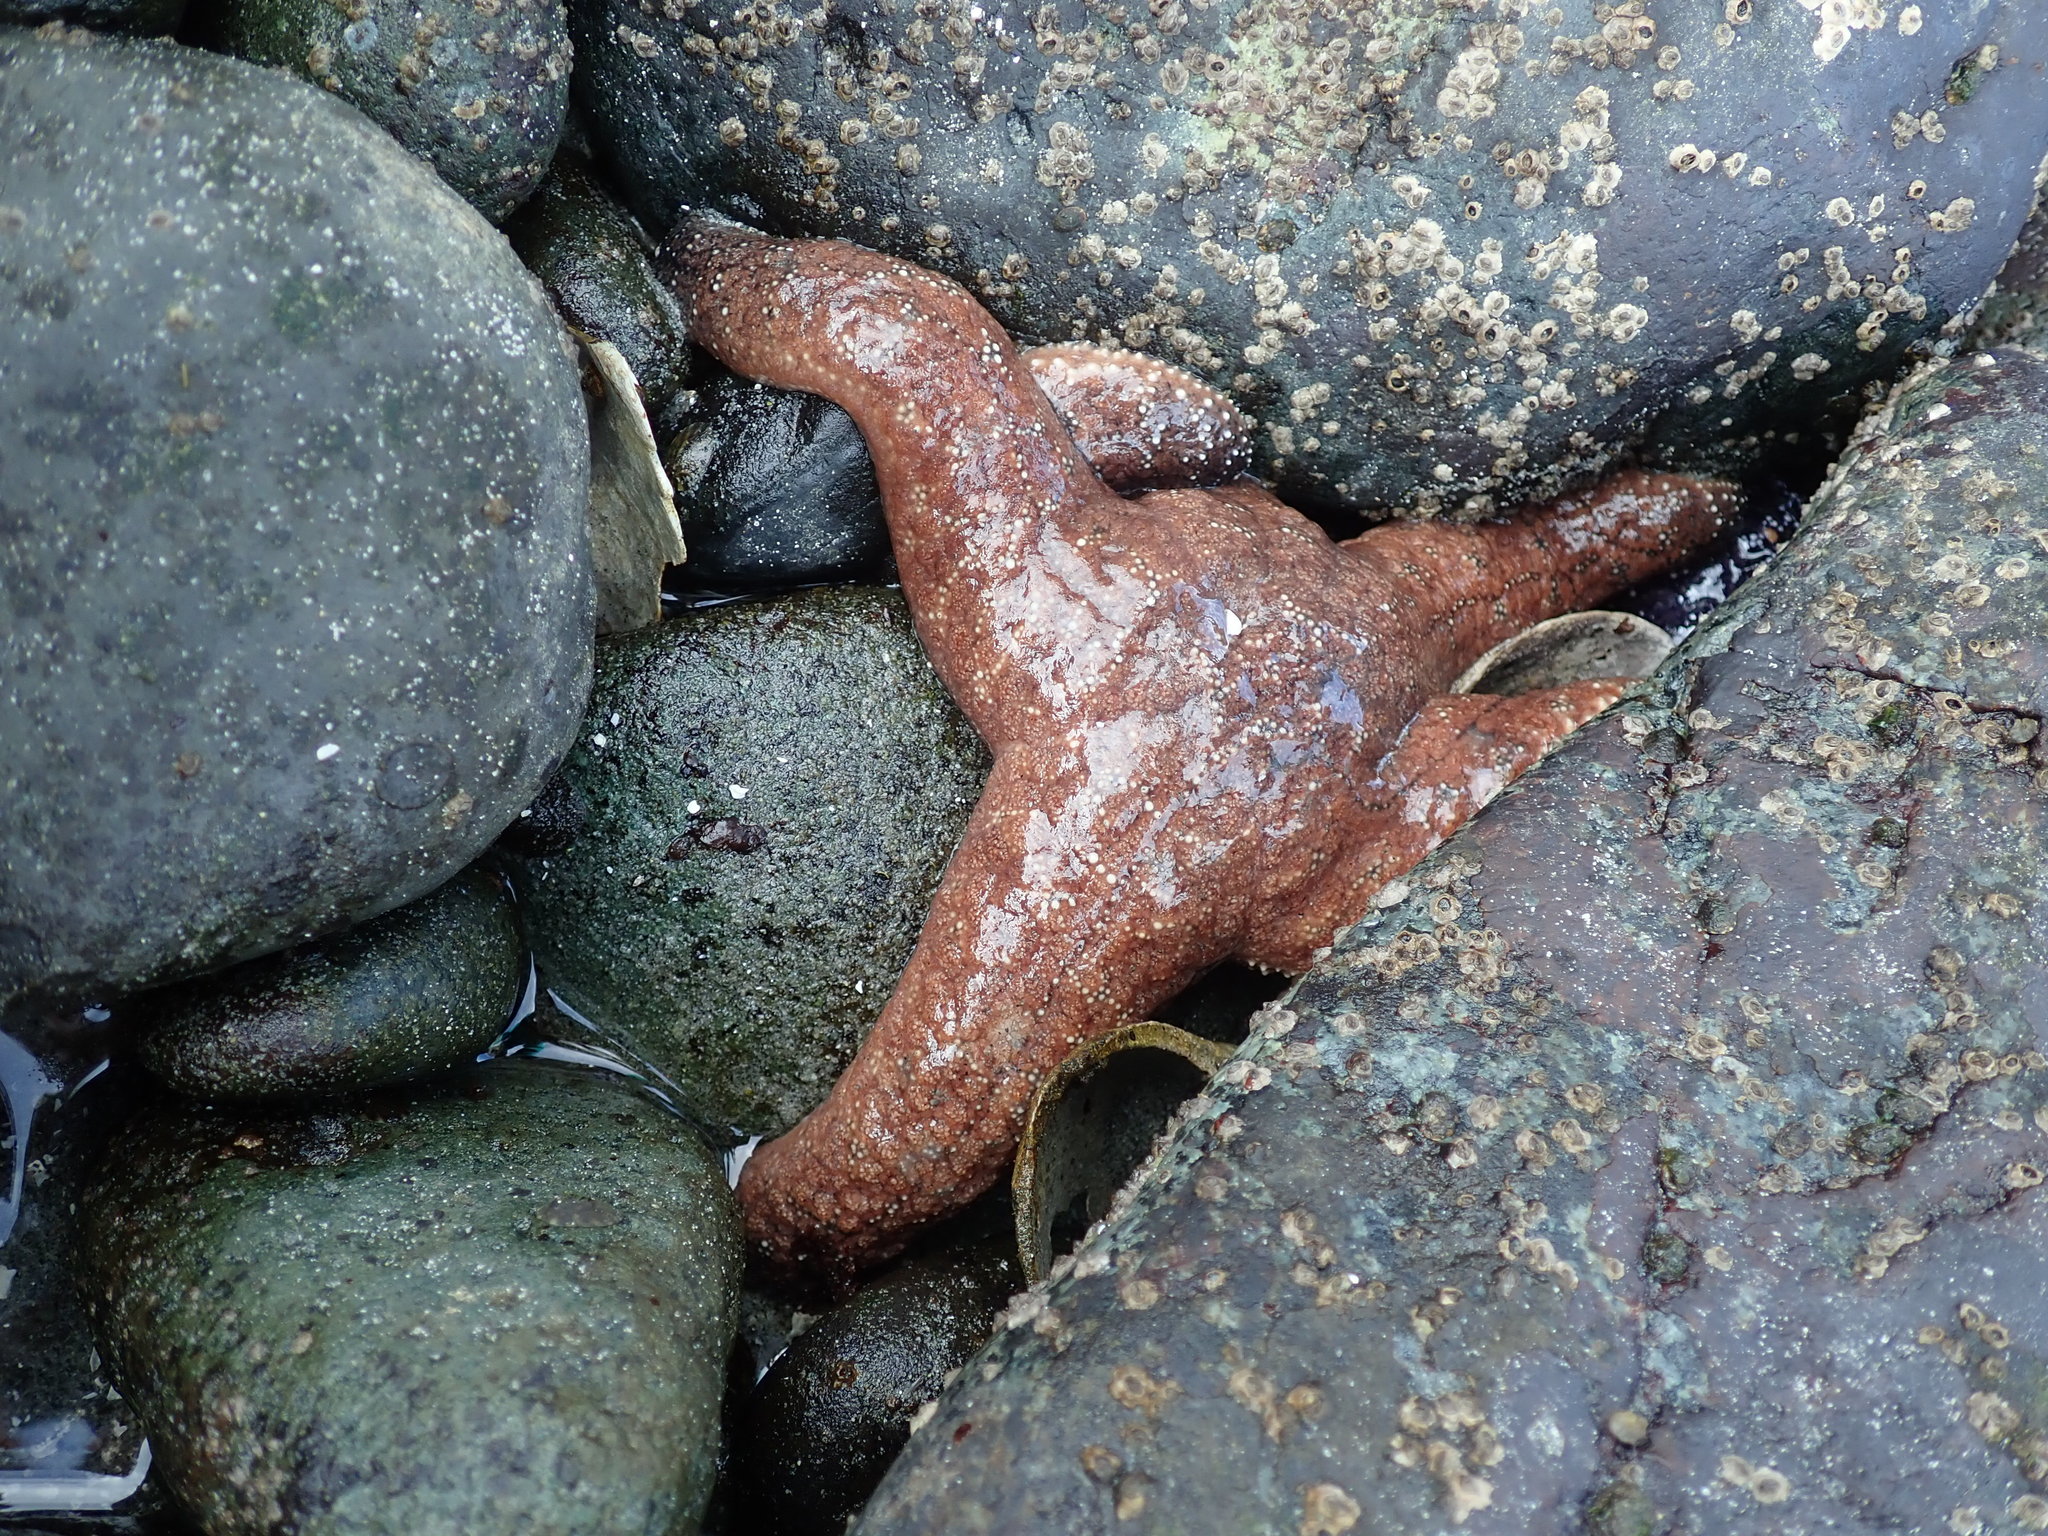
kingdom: Animalia
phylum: Echinodermata
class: Asteroidea
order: Forcipulatida
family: Asteriidae
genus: Pisaster
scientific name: Pisaster ochraceus
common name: Ochre stars
